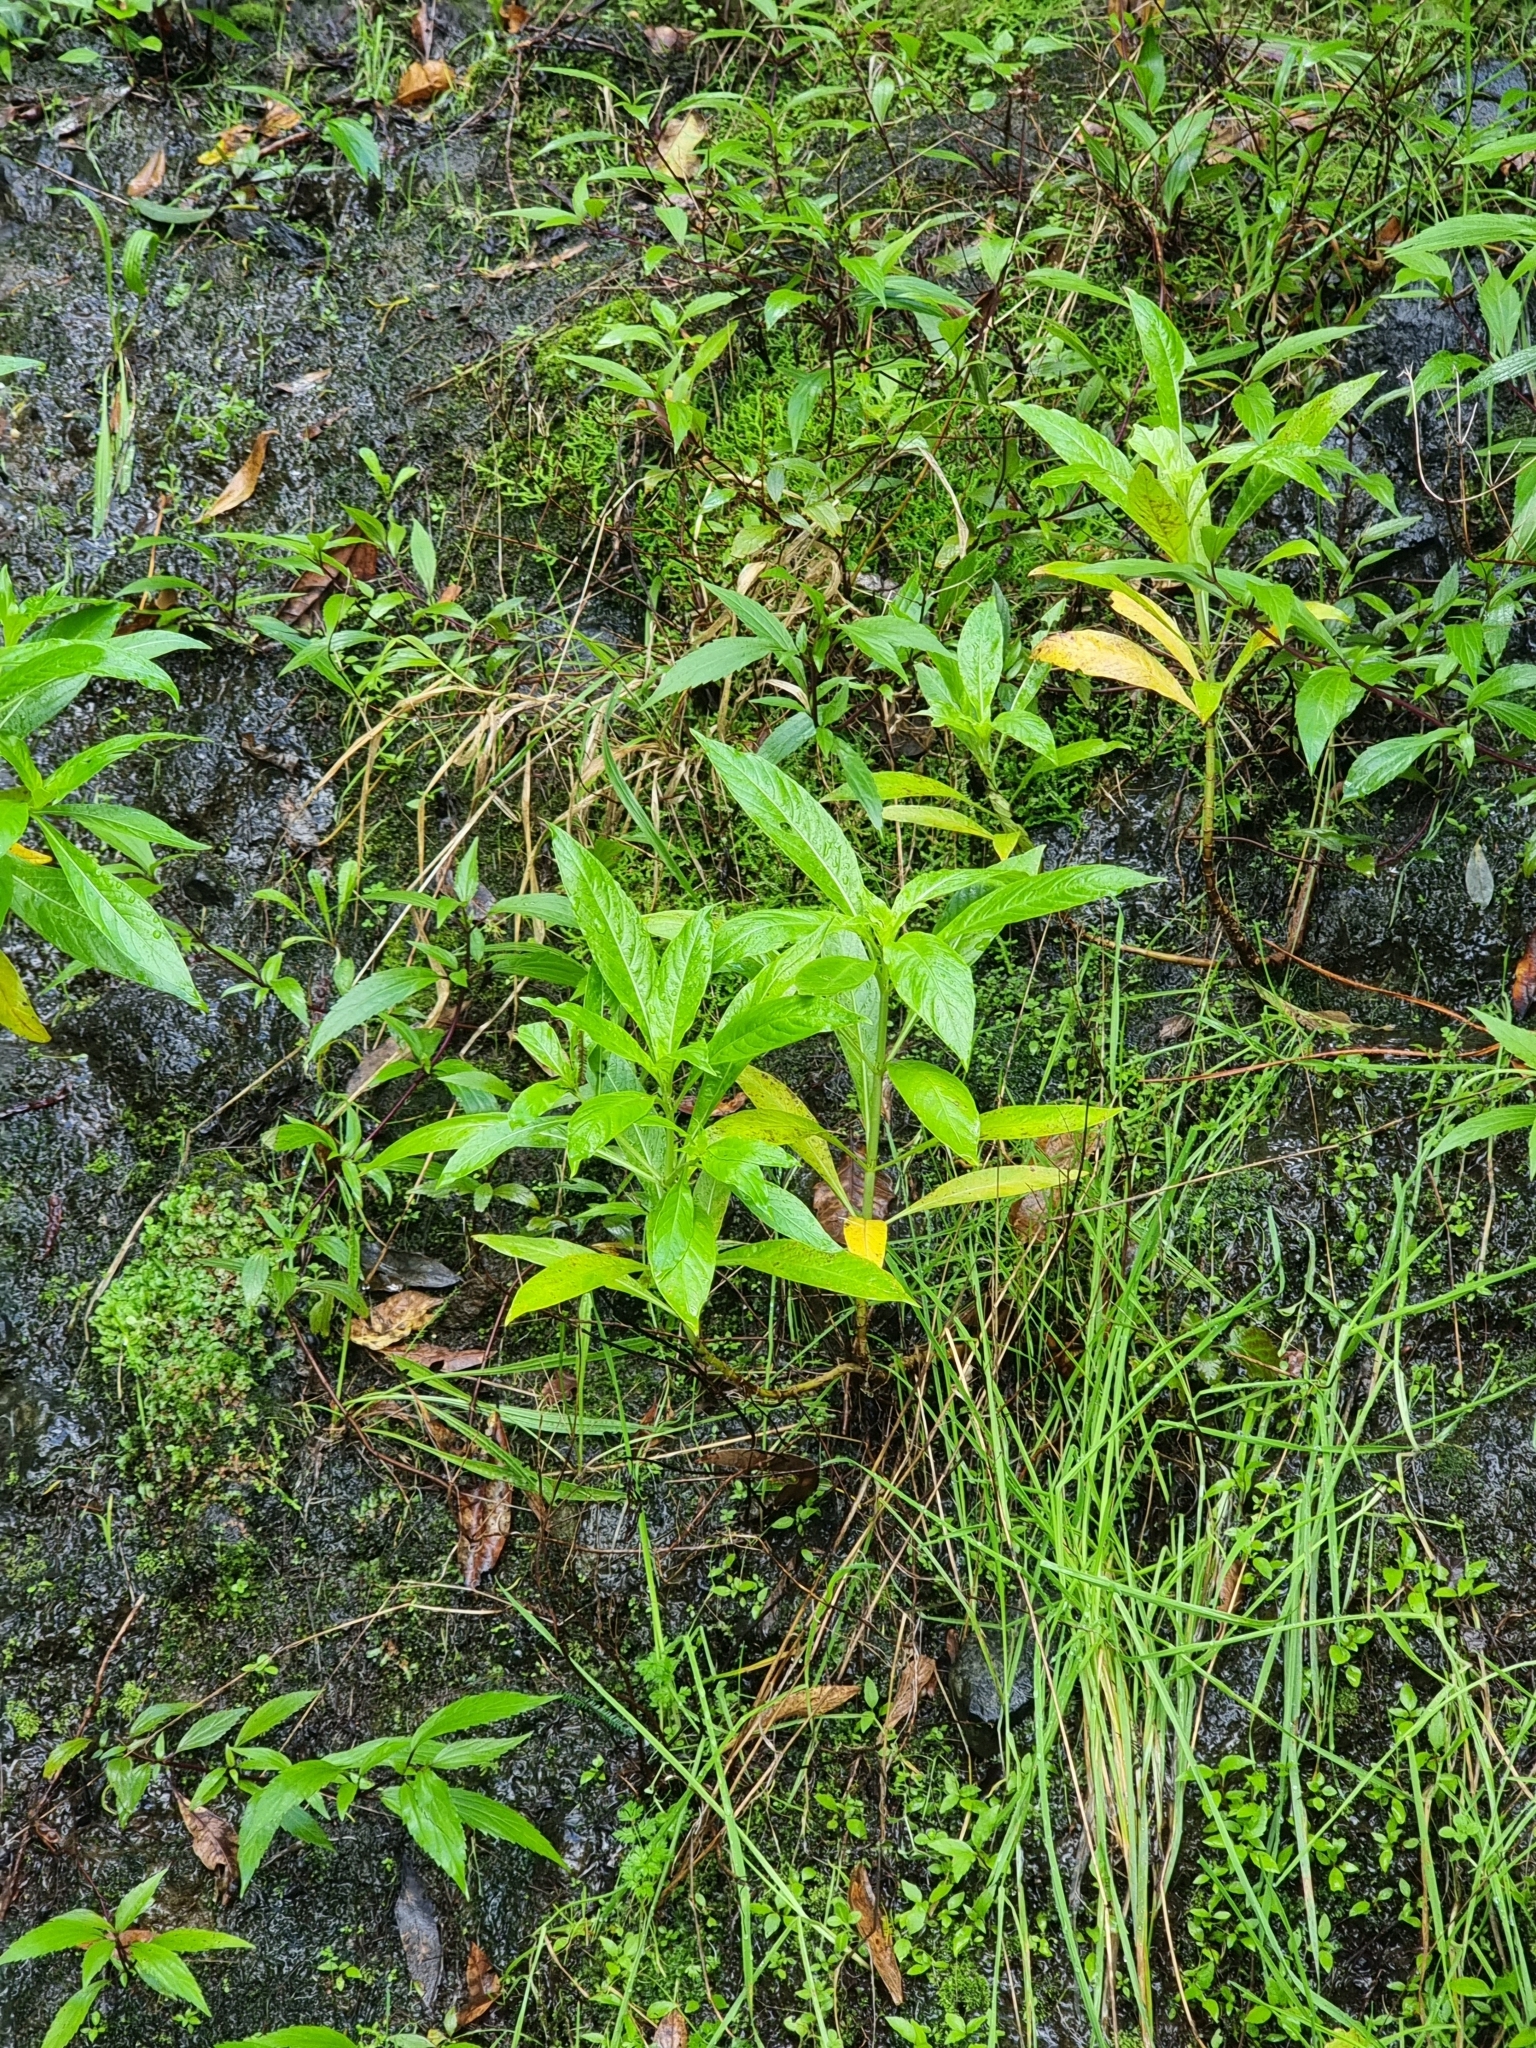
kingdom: Plantae
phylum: Tracheophyta
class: Magnoliopsida
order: Gentianales
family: Rubiaceae
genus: Phyllis
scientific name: Phyllis nobla
